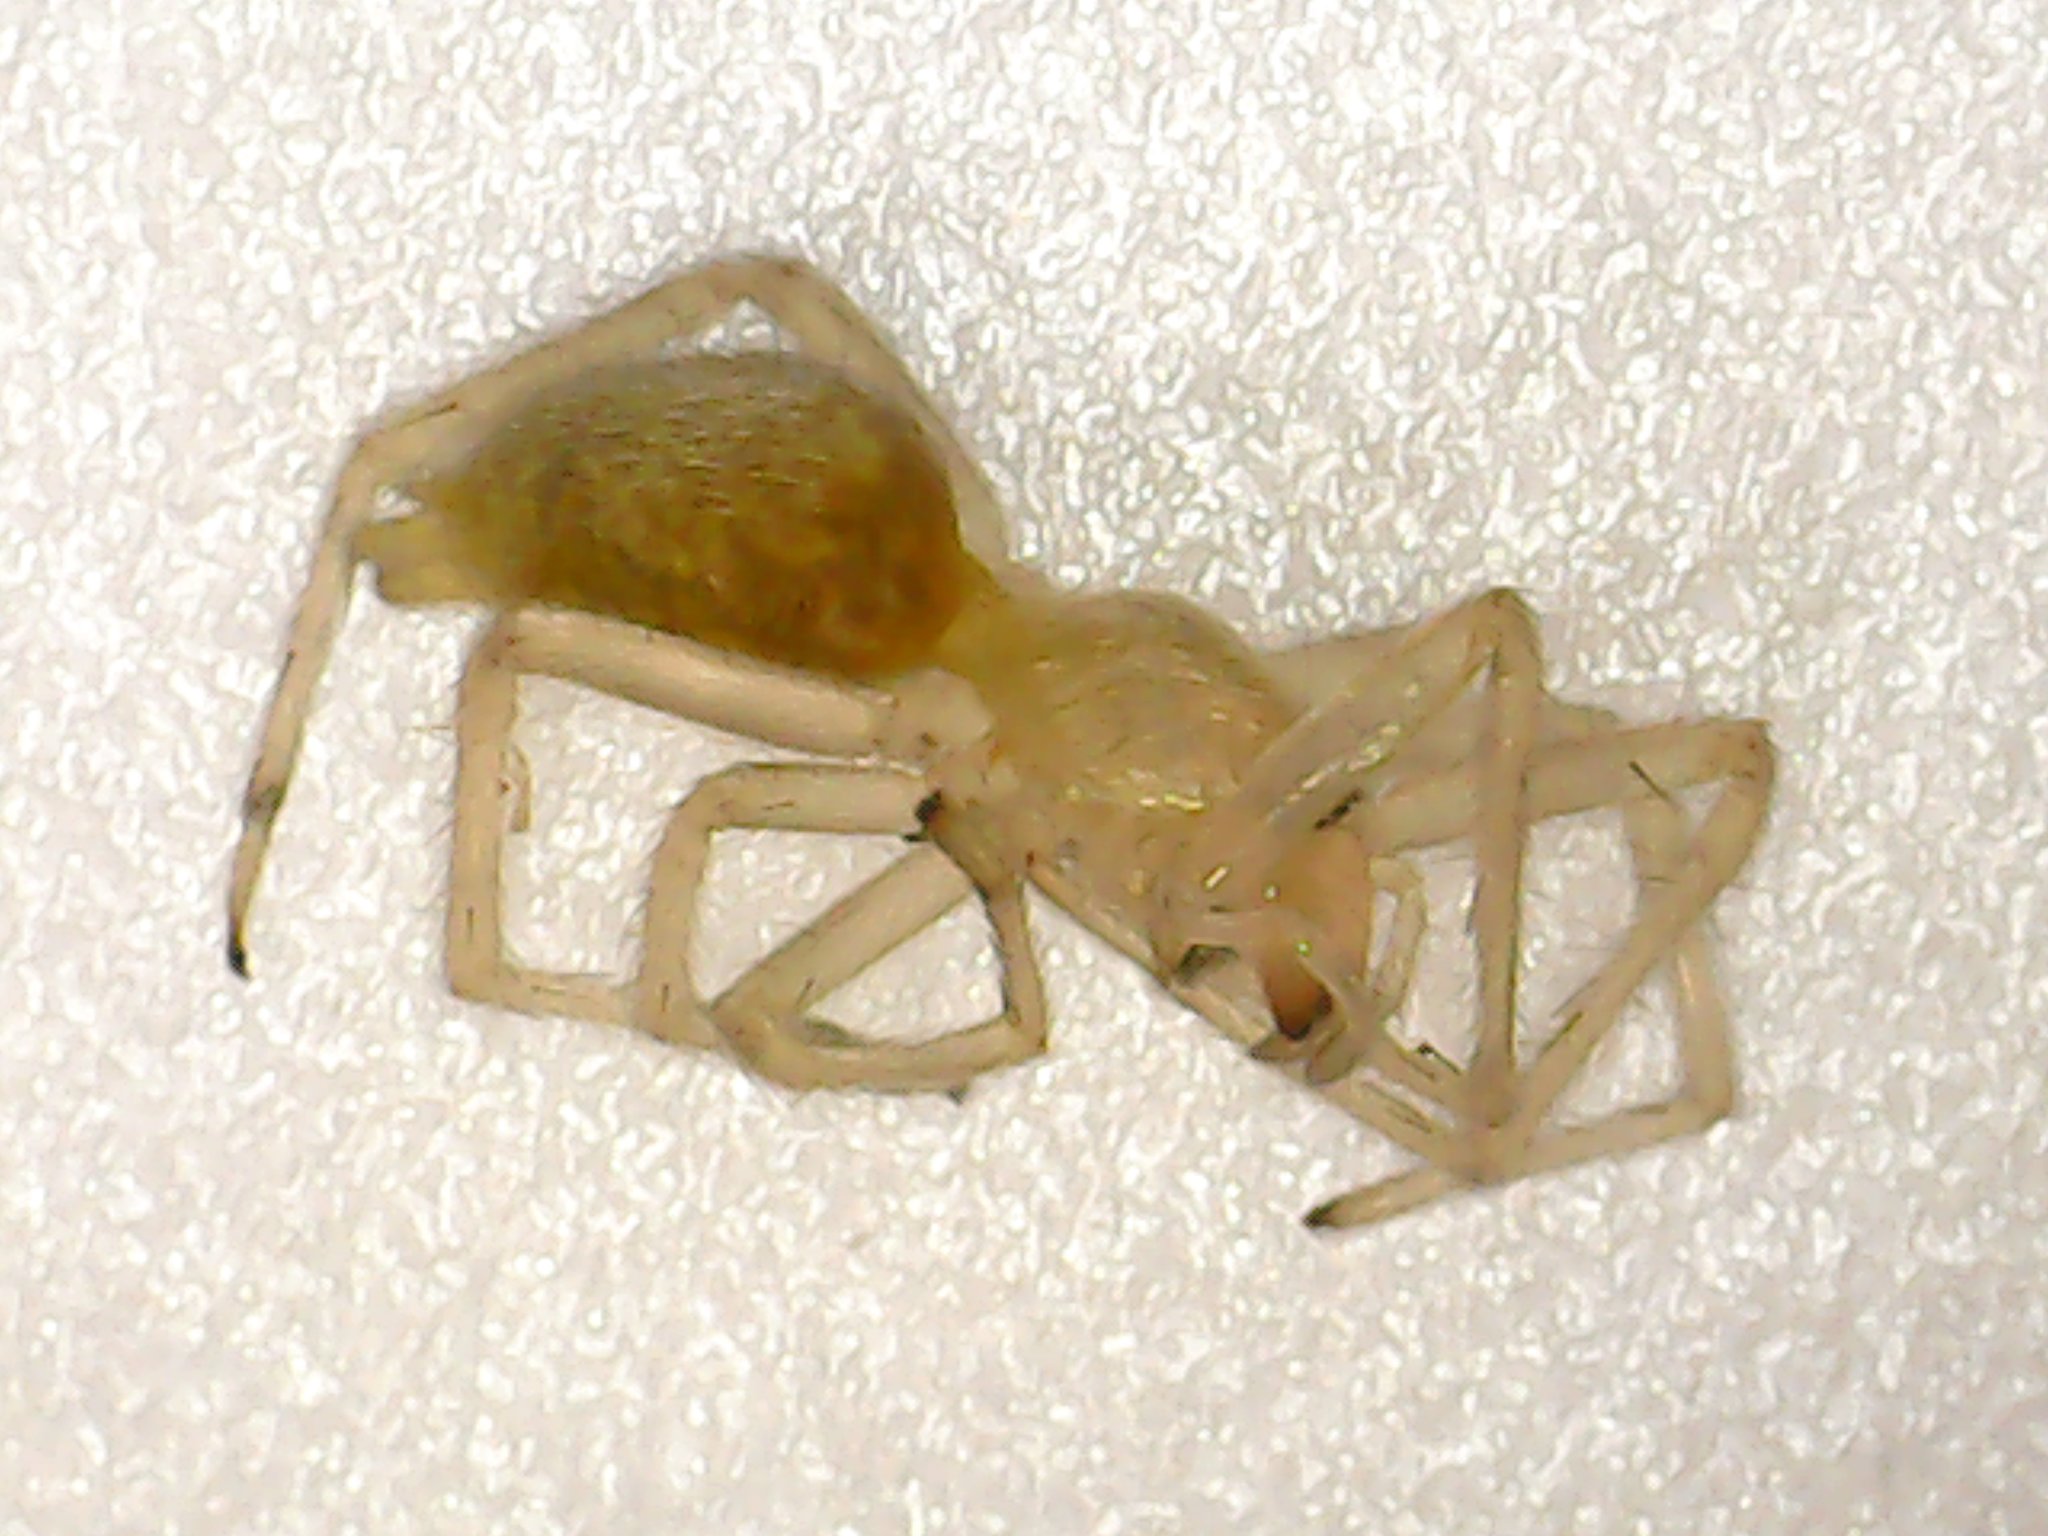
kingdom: Animalia
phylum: Arthropoda
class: Arachnida
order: Araneae
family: Cheiracanthiidae
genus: Cheiracanthium
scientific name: Cheiracanthium mildei
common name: Northern yellow sac spider
